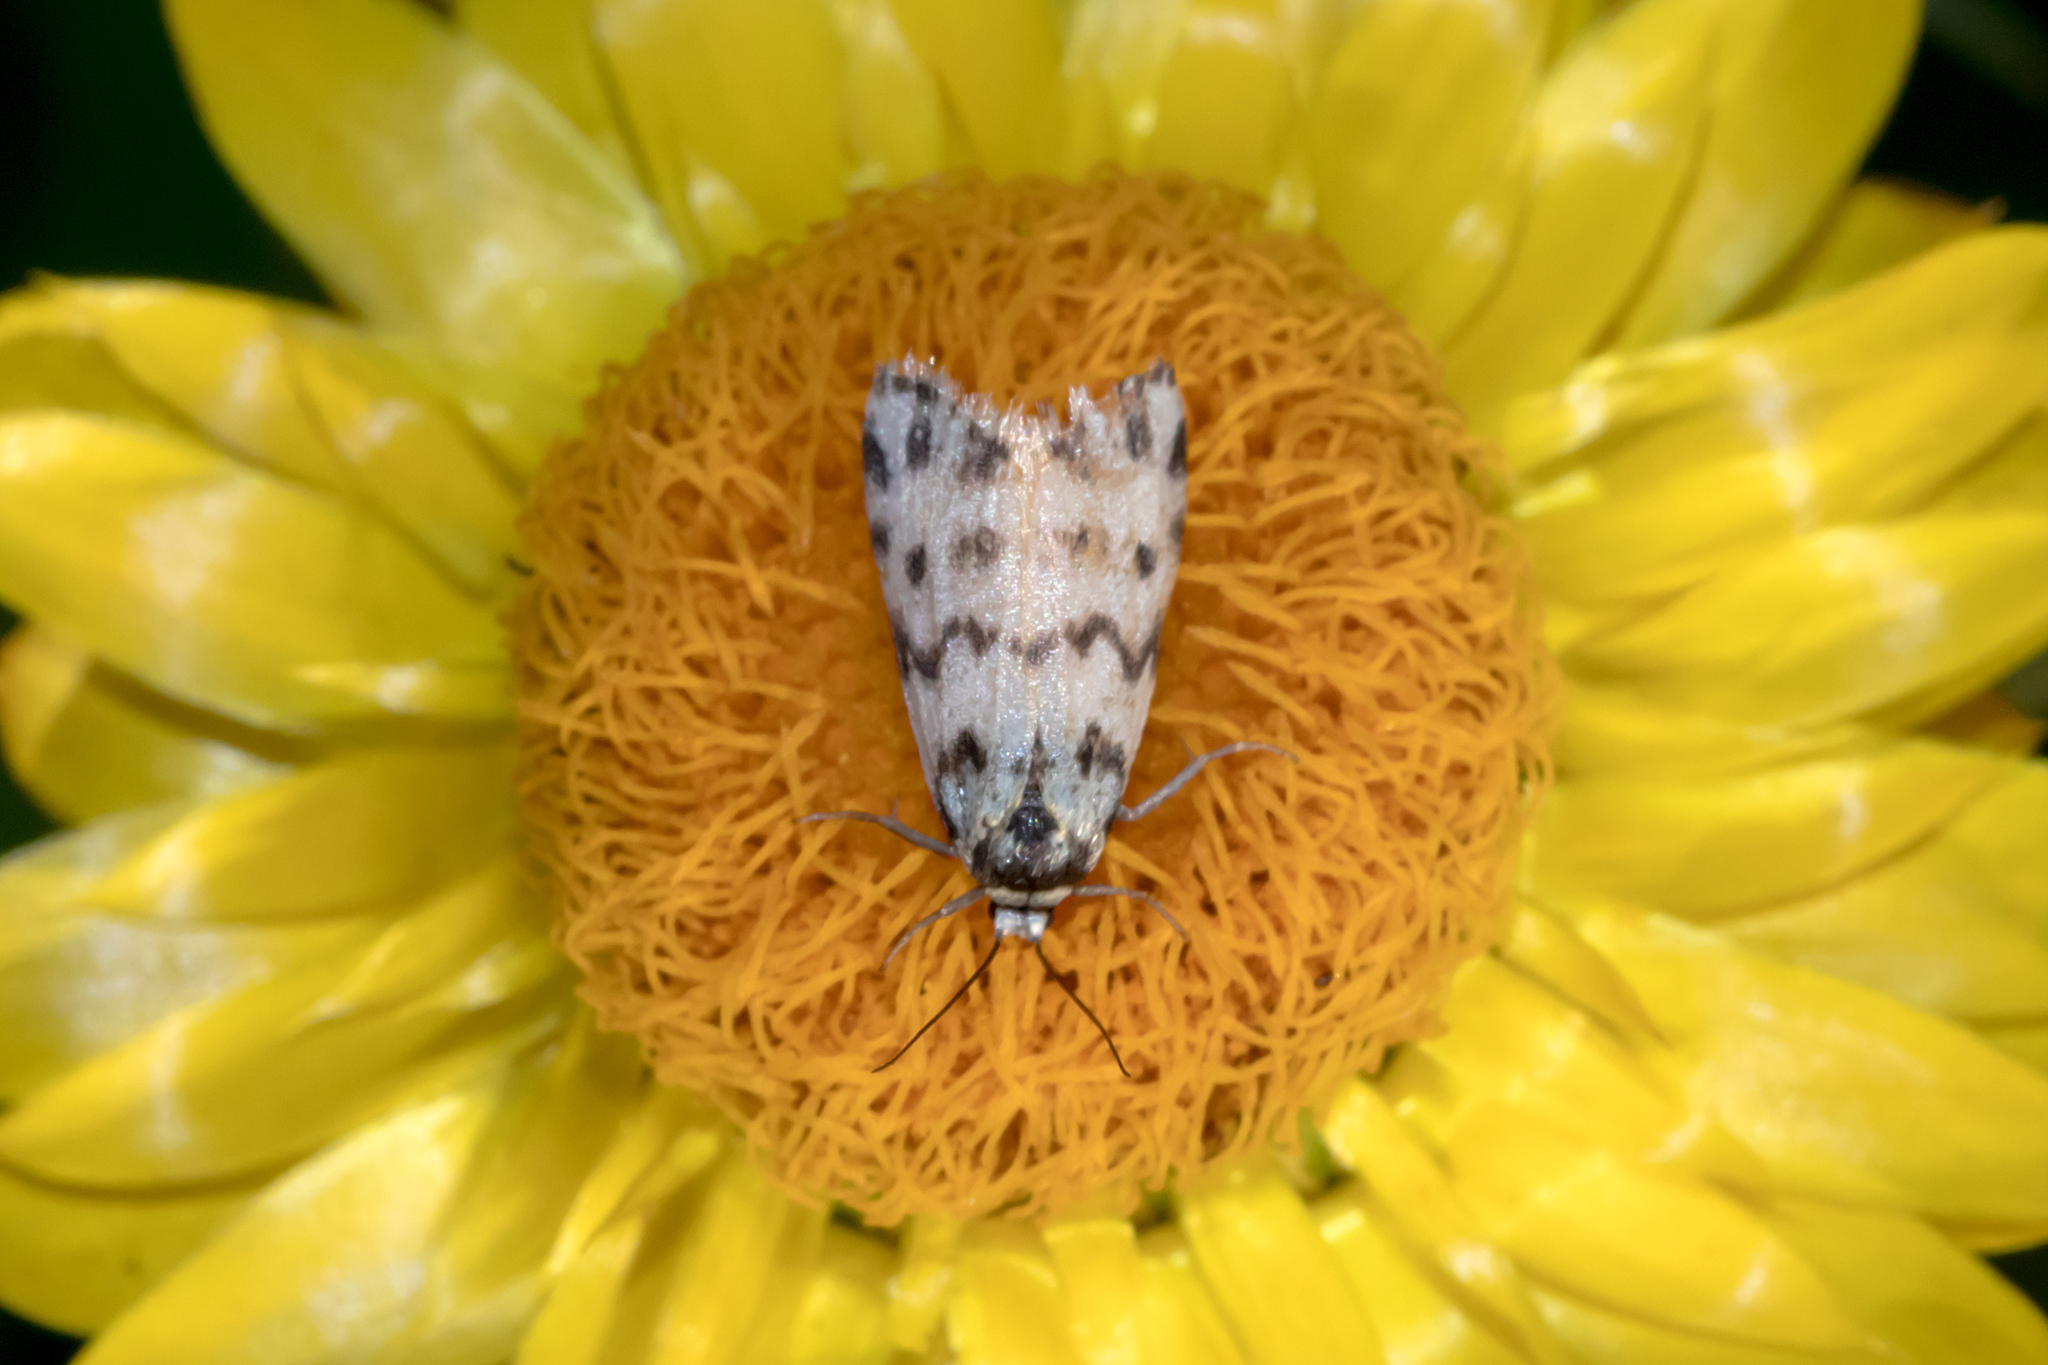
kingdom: Animalia
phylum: Arthropoda
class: Insecta
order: Lepidoptera
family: Erebidae
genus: Thallarcha
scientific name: Thallarcha jocularis
